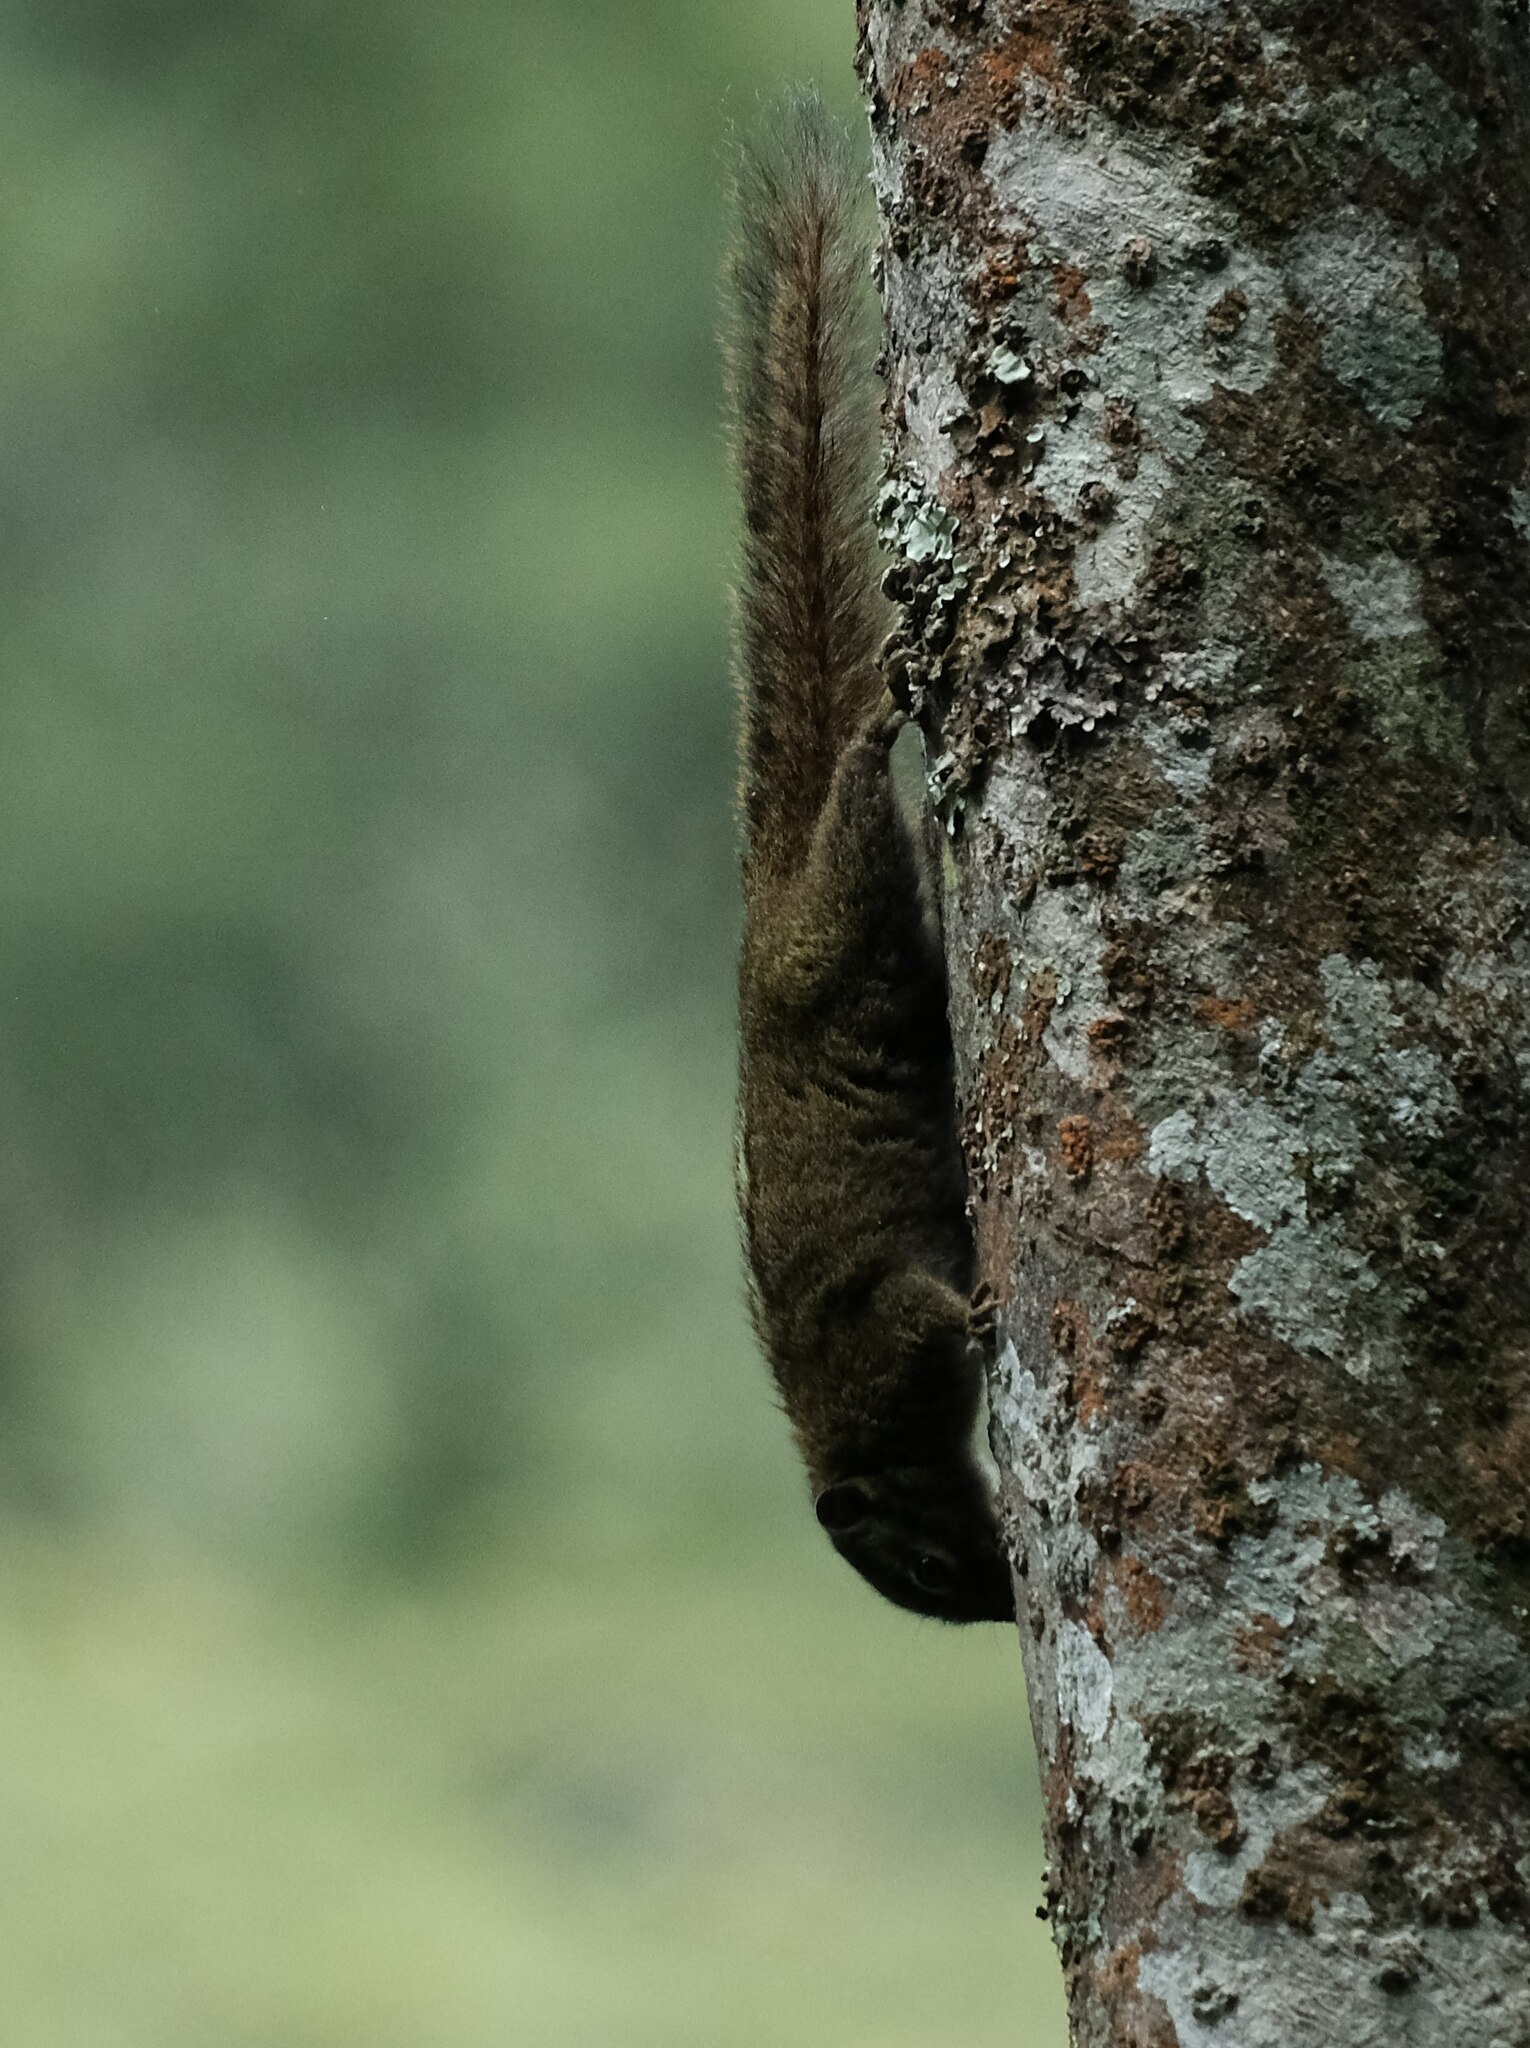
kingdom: Animalia
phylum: Chordata
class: Mammalia
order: Rodentia
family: Sciuridae
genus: Paraxerus
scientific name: Paraxerus boehmi
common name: Boehm's bush squirrel
